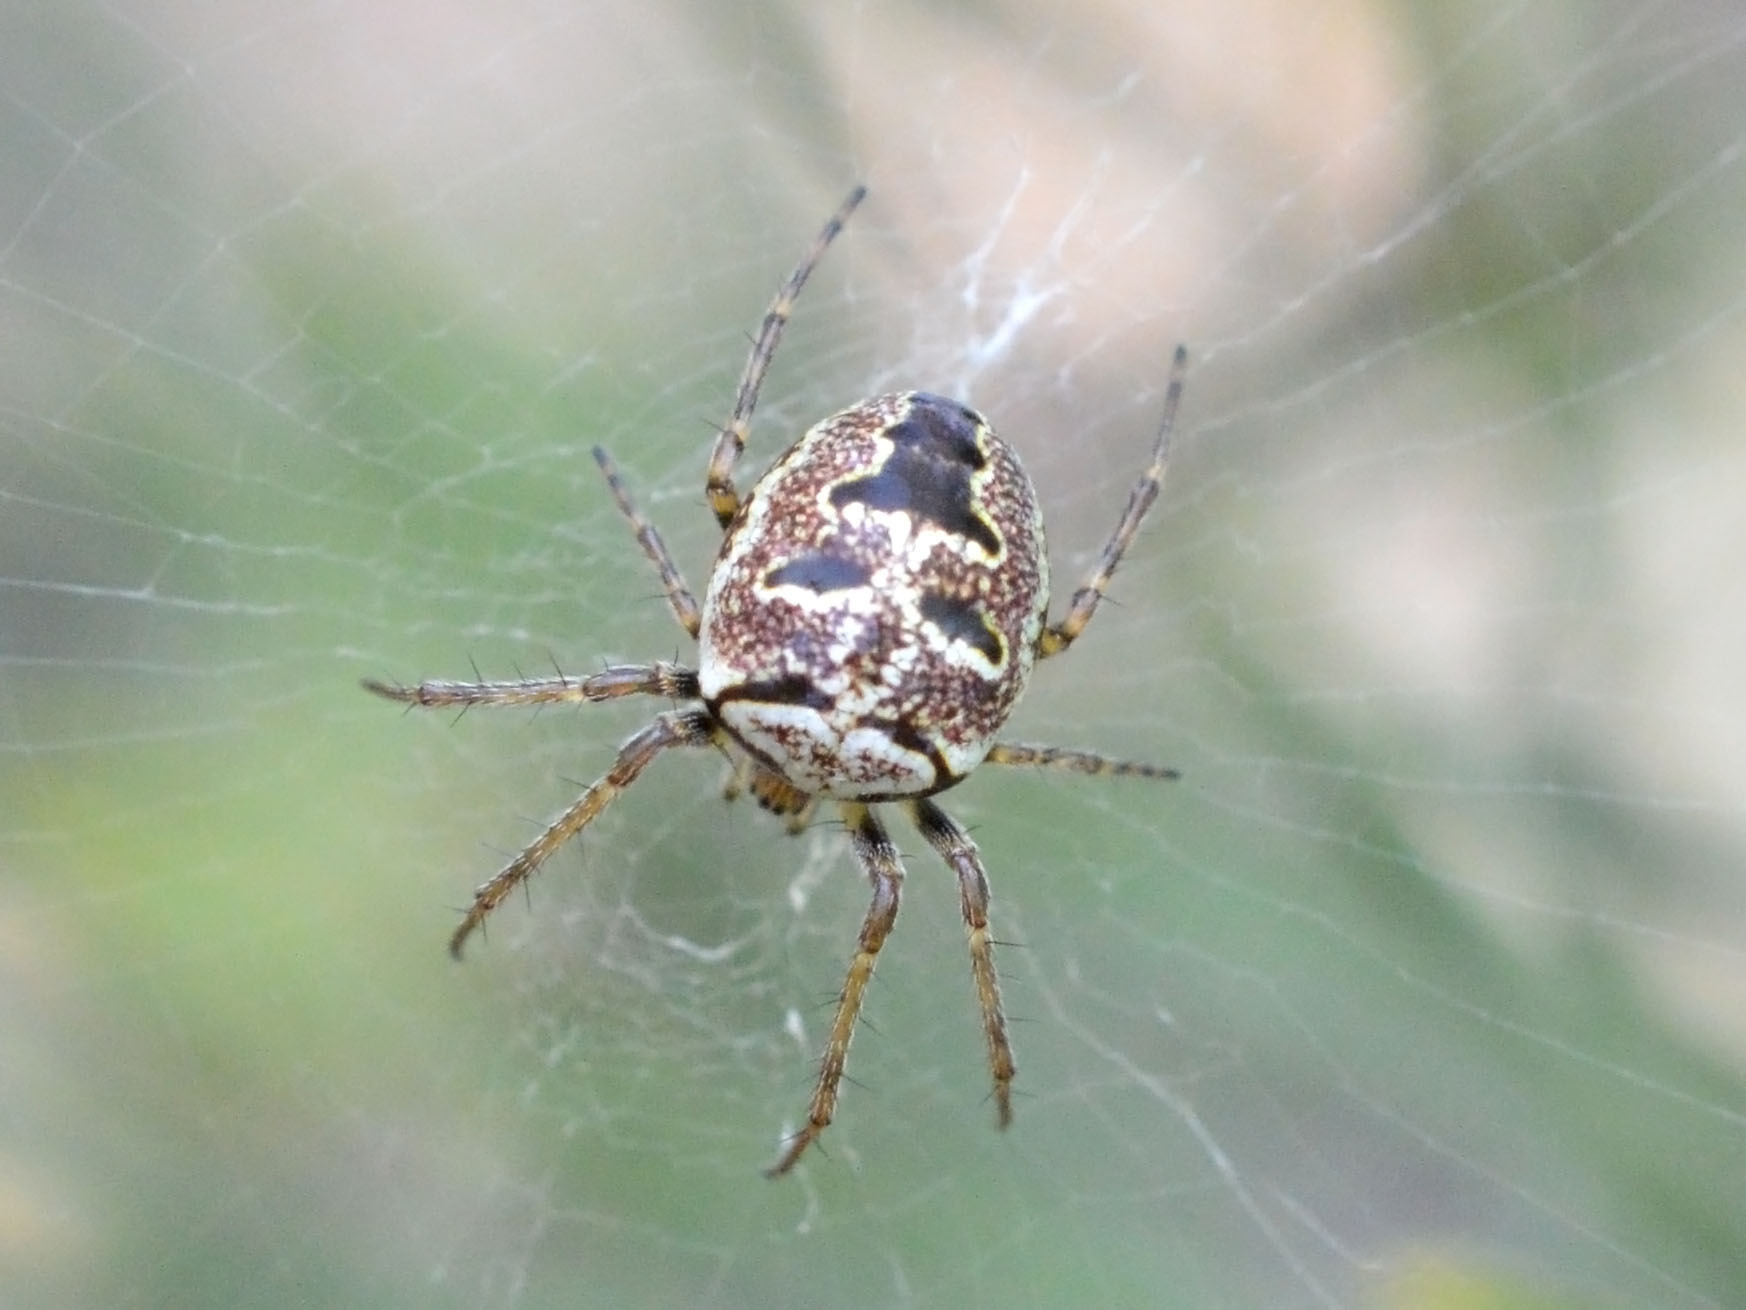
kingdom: Animalia
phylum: Arthropoda
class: Arachnida
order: Araneae
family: Araneidae
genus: Zilla
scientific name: Zilla diodia
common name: Zilla diodia
